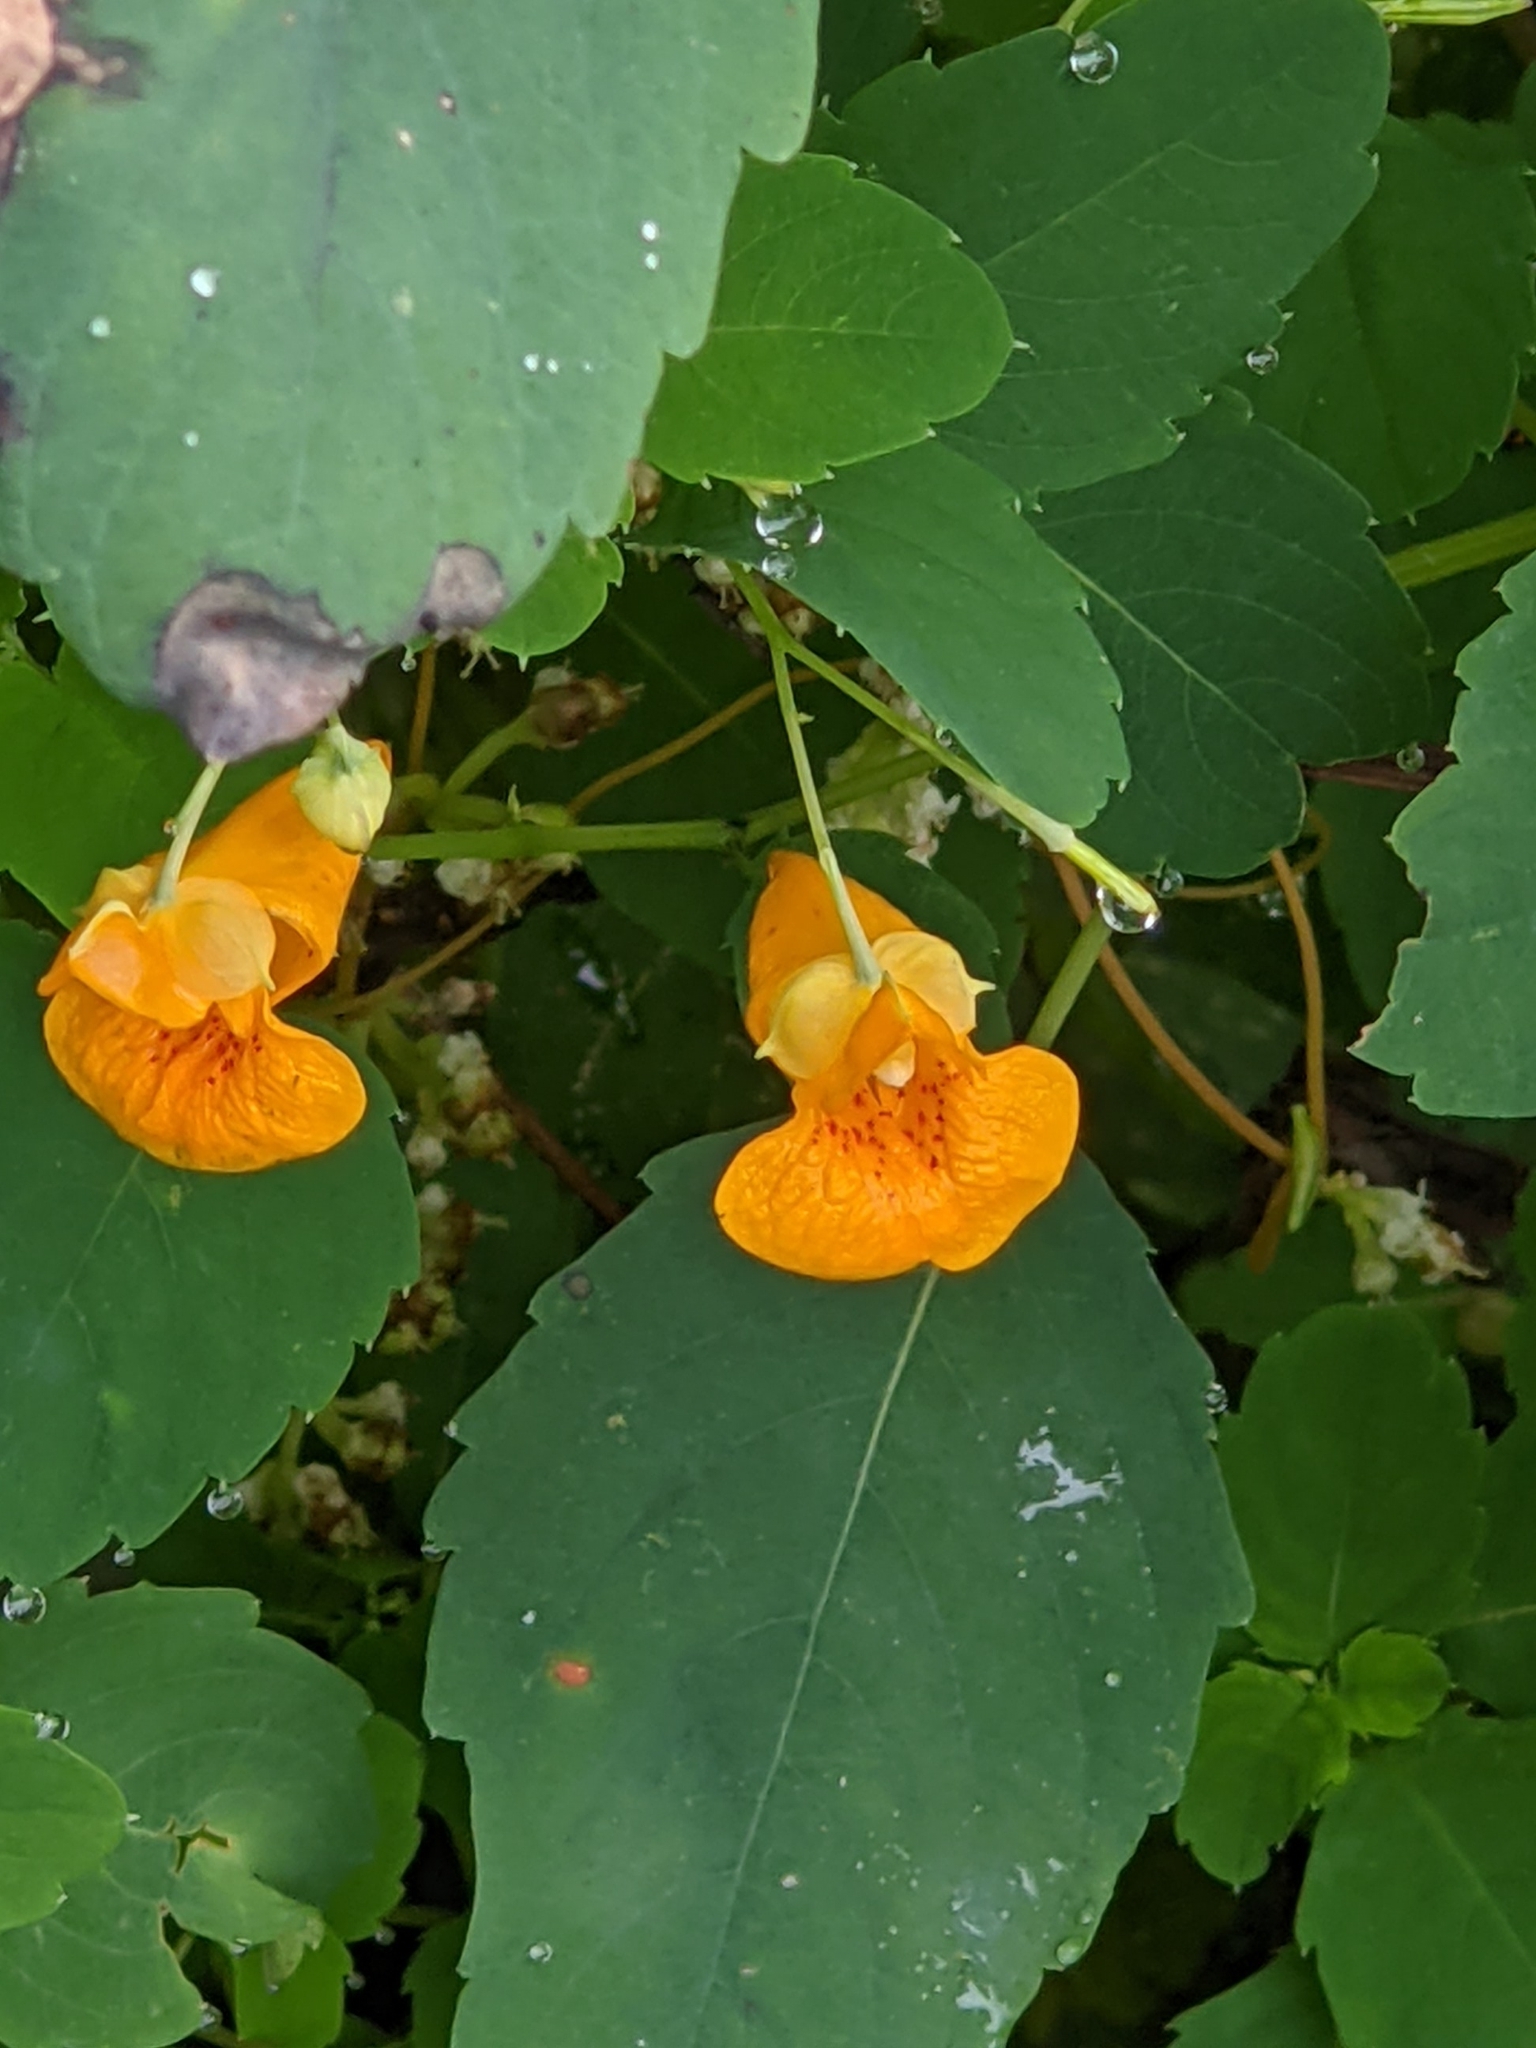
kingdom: Plantae
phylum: Tracheophyta
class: Magnoliopsida
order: Ericales
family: Balsaminaceae
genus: Impatiens
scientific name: Impatiens capensis
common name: Orange balsam
